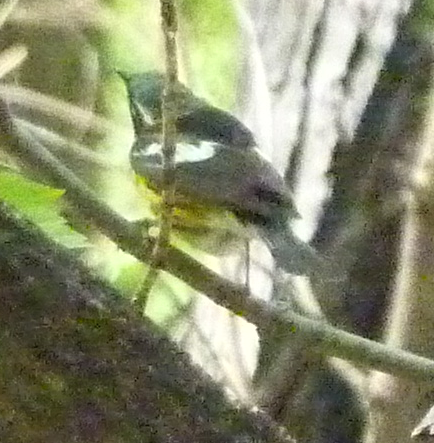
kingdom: Animalia
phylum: Chordata
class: Aves
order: Passeriformes
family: Parulidae
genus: Setophaga
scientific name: Setophaga magnolia
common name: Magnolia warbler
